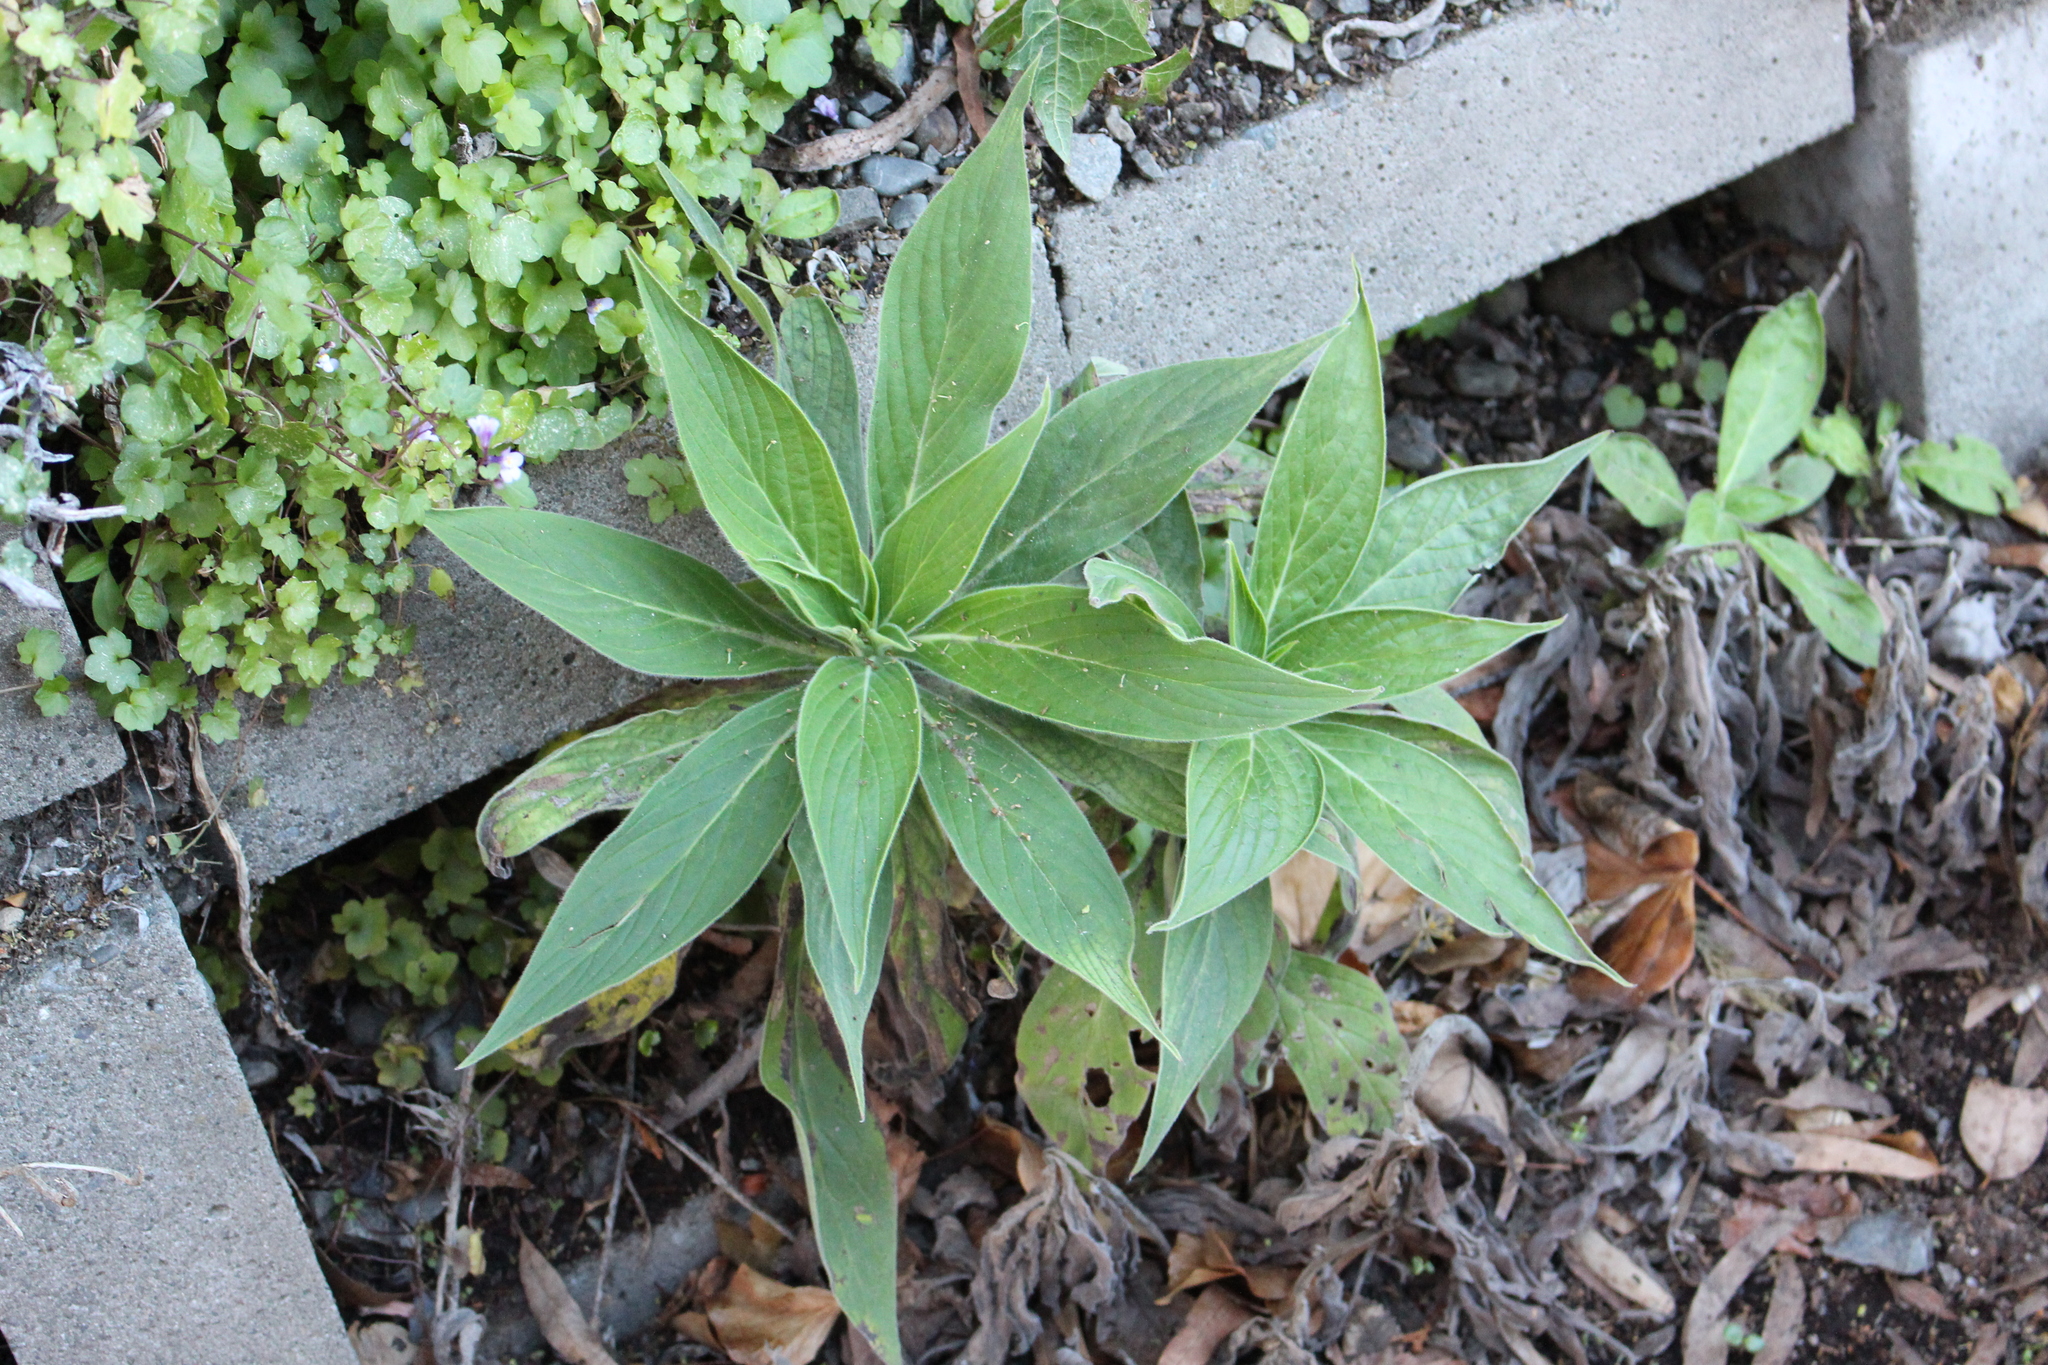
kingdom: Plantae
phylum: Tracheophyta
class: Magnoliopsida
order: Boraginales
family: Boraginaceae
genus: Echium
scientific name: Echium candicans
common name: Pride of madeira
